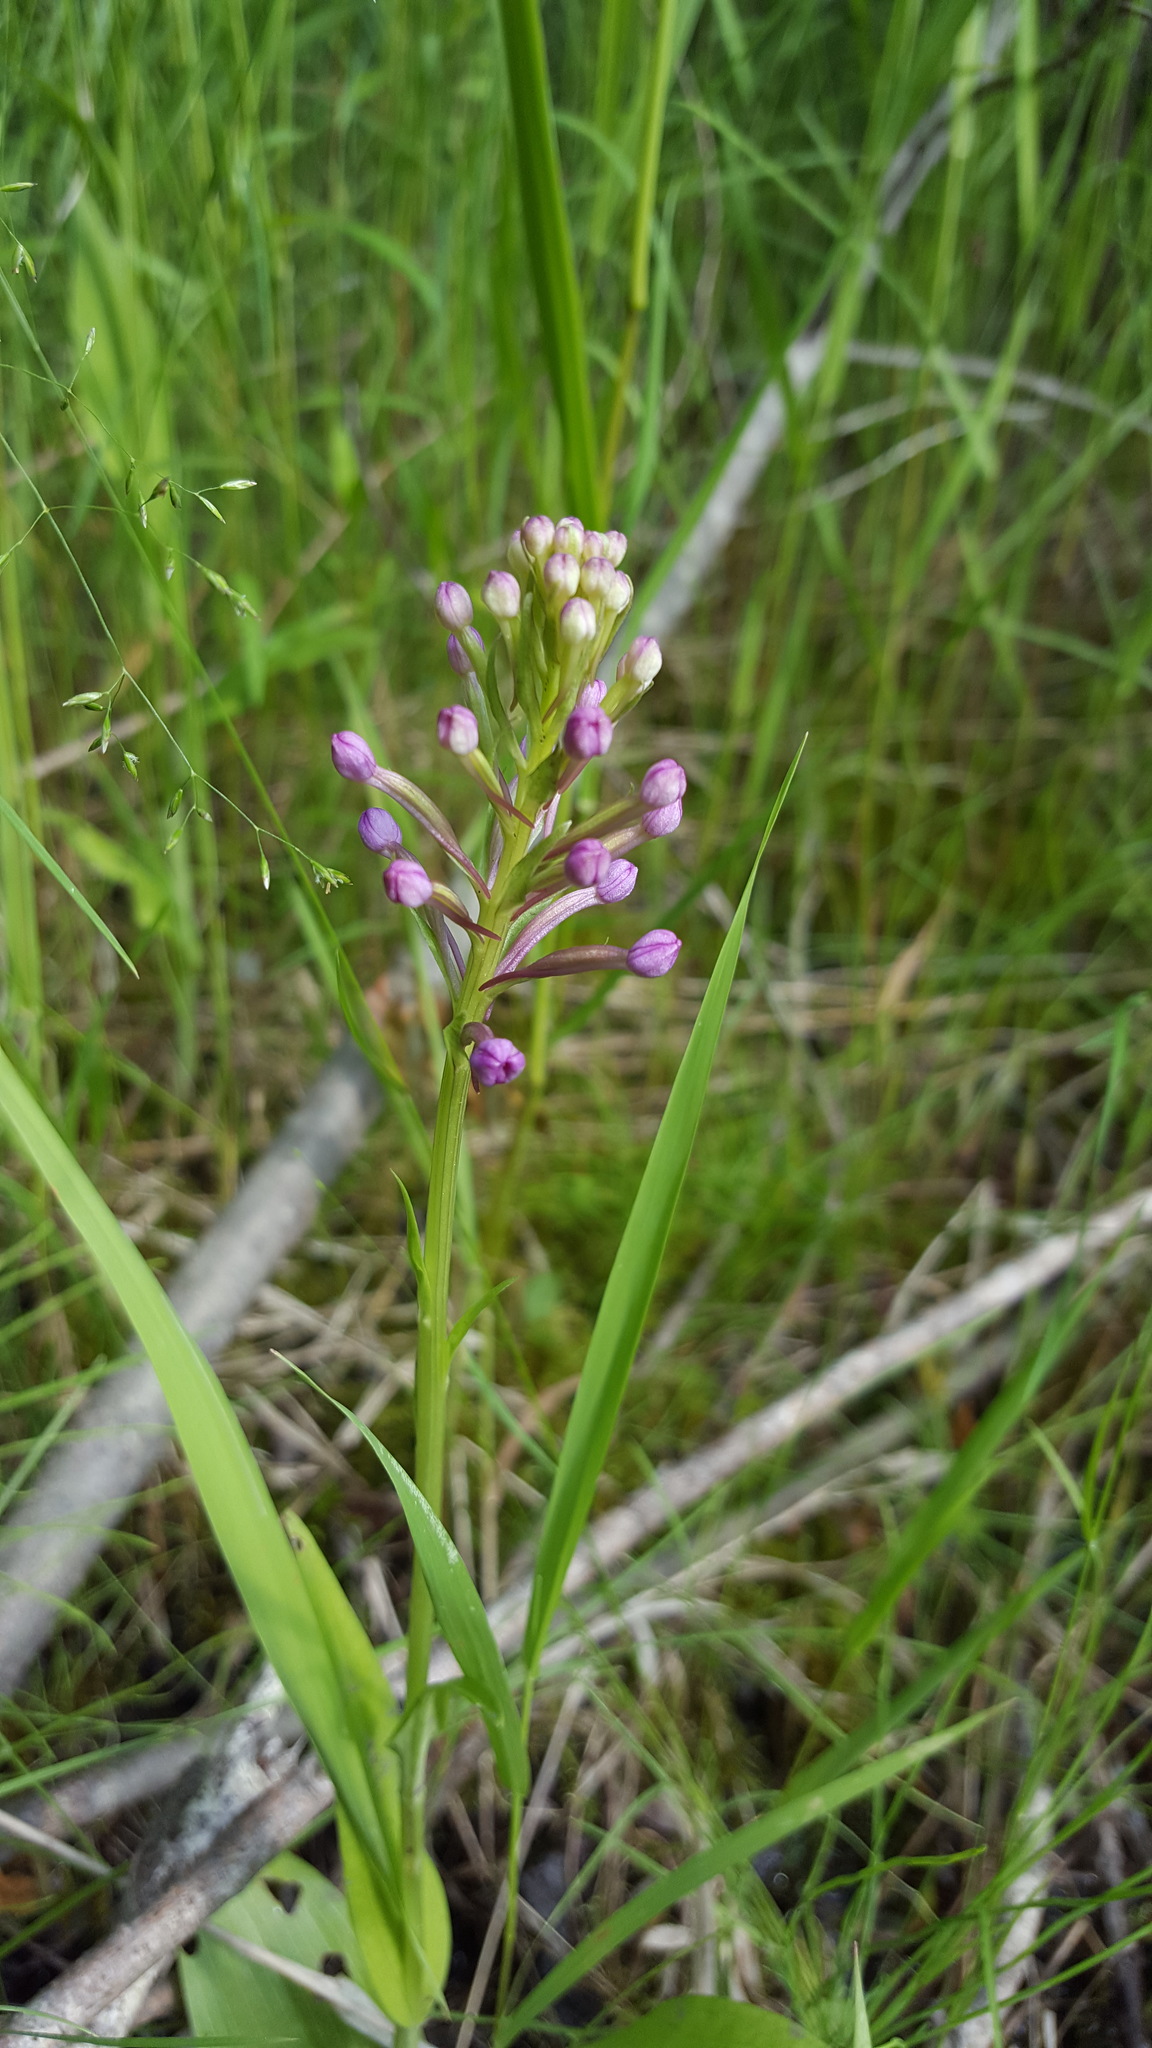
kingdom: Plantae
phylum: Tracheophyta
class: Liliopsida
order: Asparagales
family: Orchidaceae
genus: Platanthera
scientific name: Platanthera psycodes
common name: Lesser purple fringed orchid
